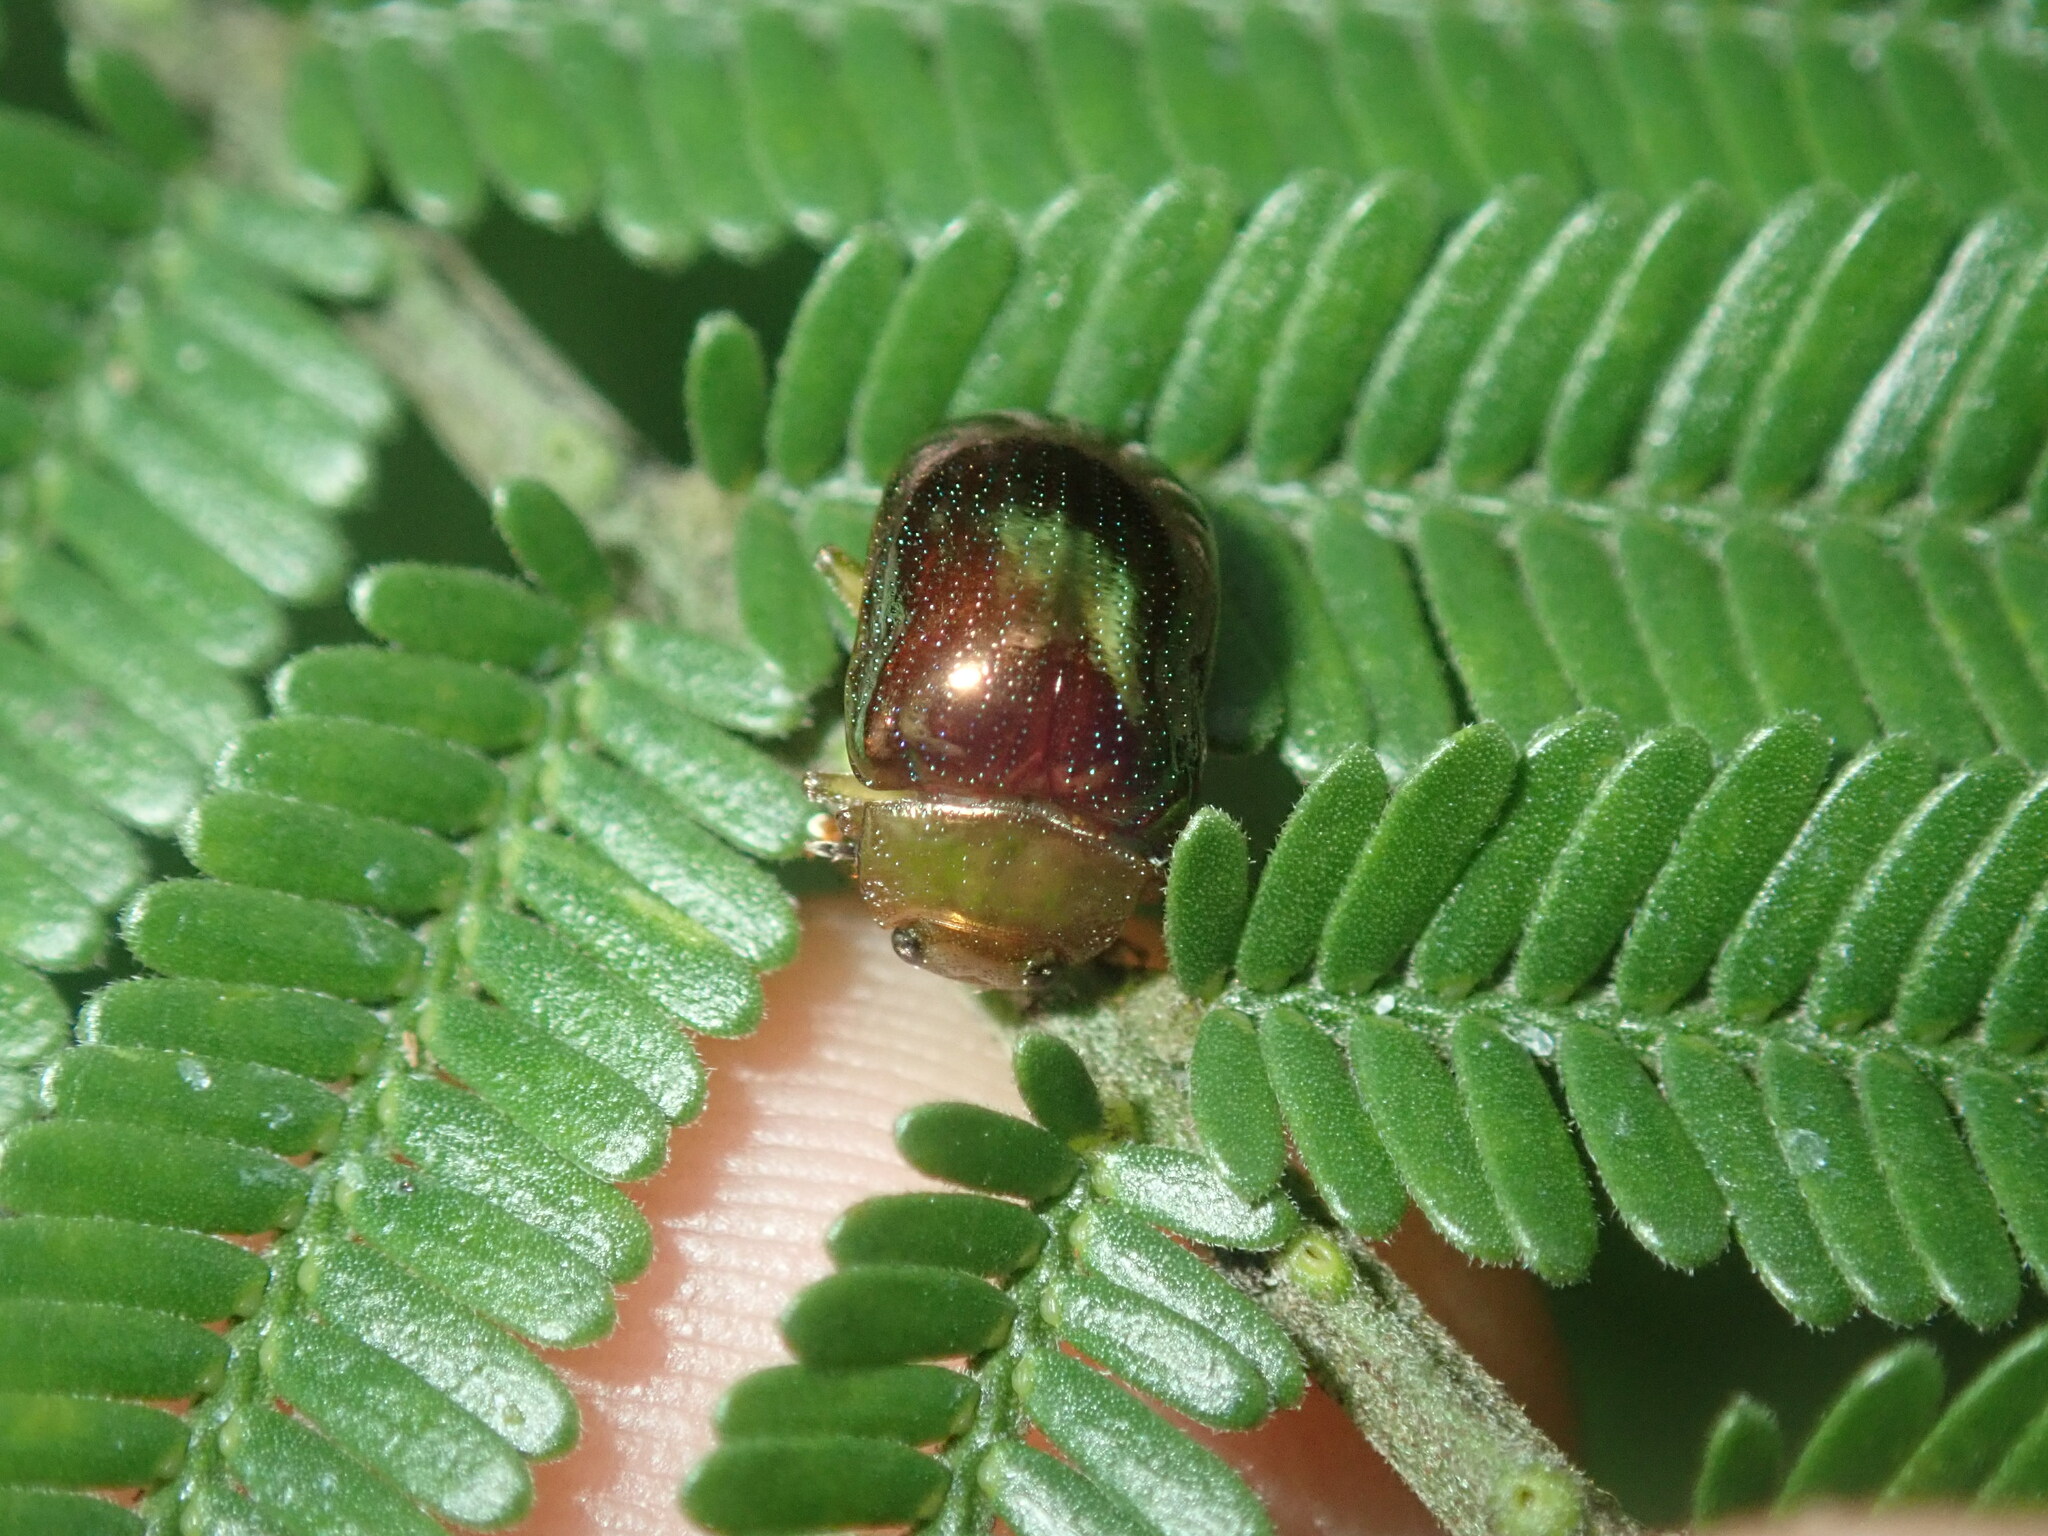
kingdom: Animalia
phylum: Arthropoda
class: Insecta
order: Coleoptera
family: Chrysomelidae
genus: Calomela
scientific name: Calomela
